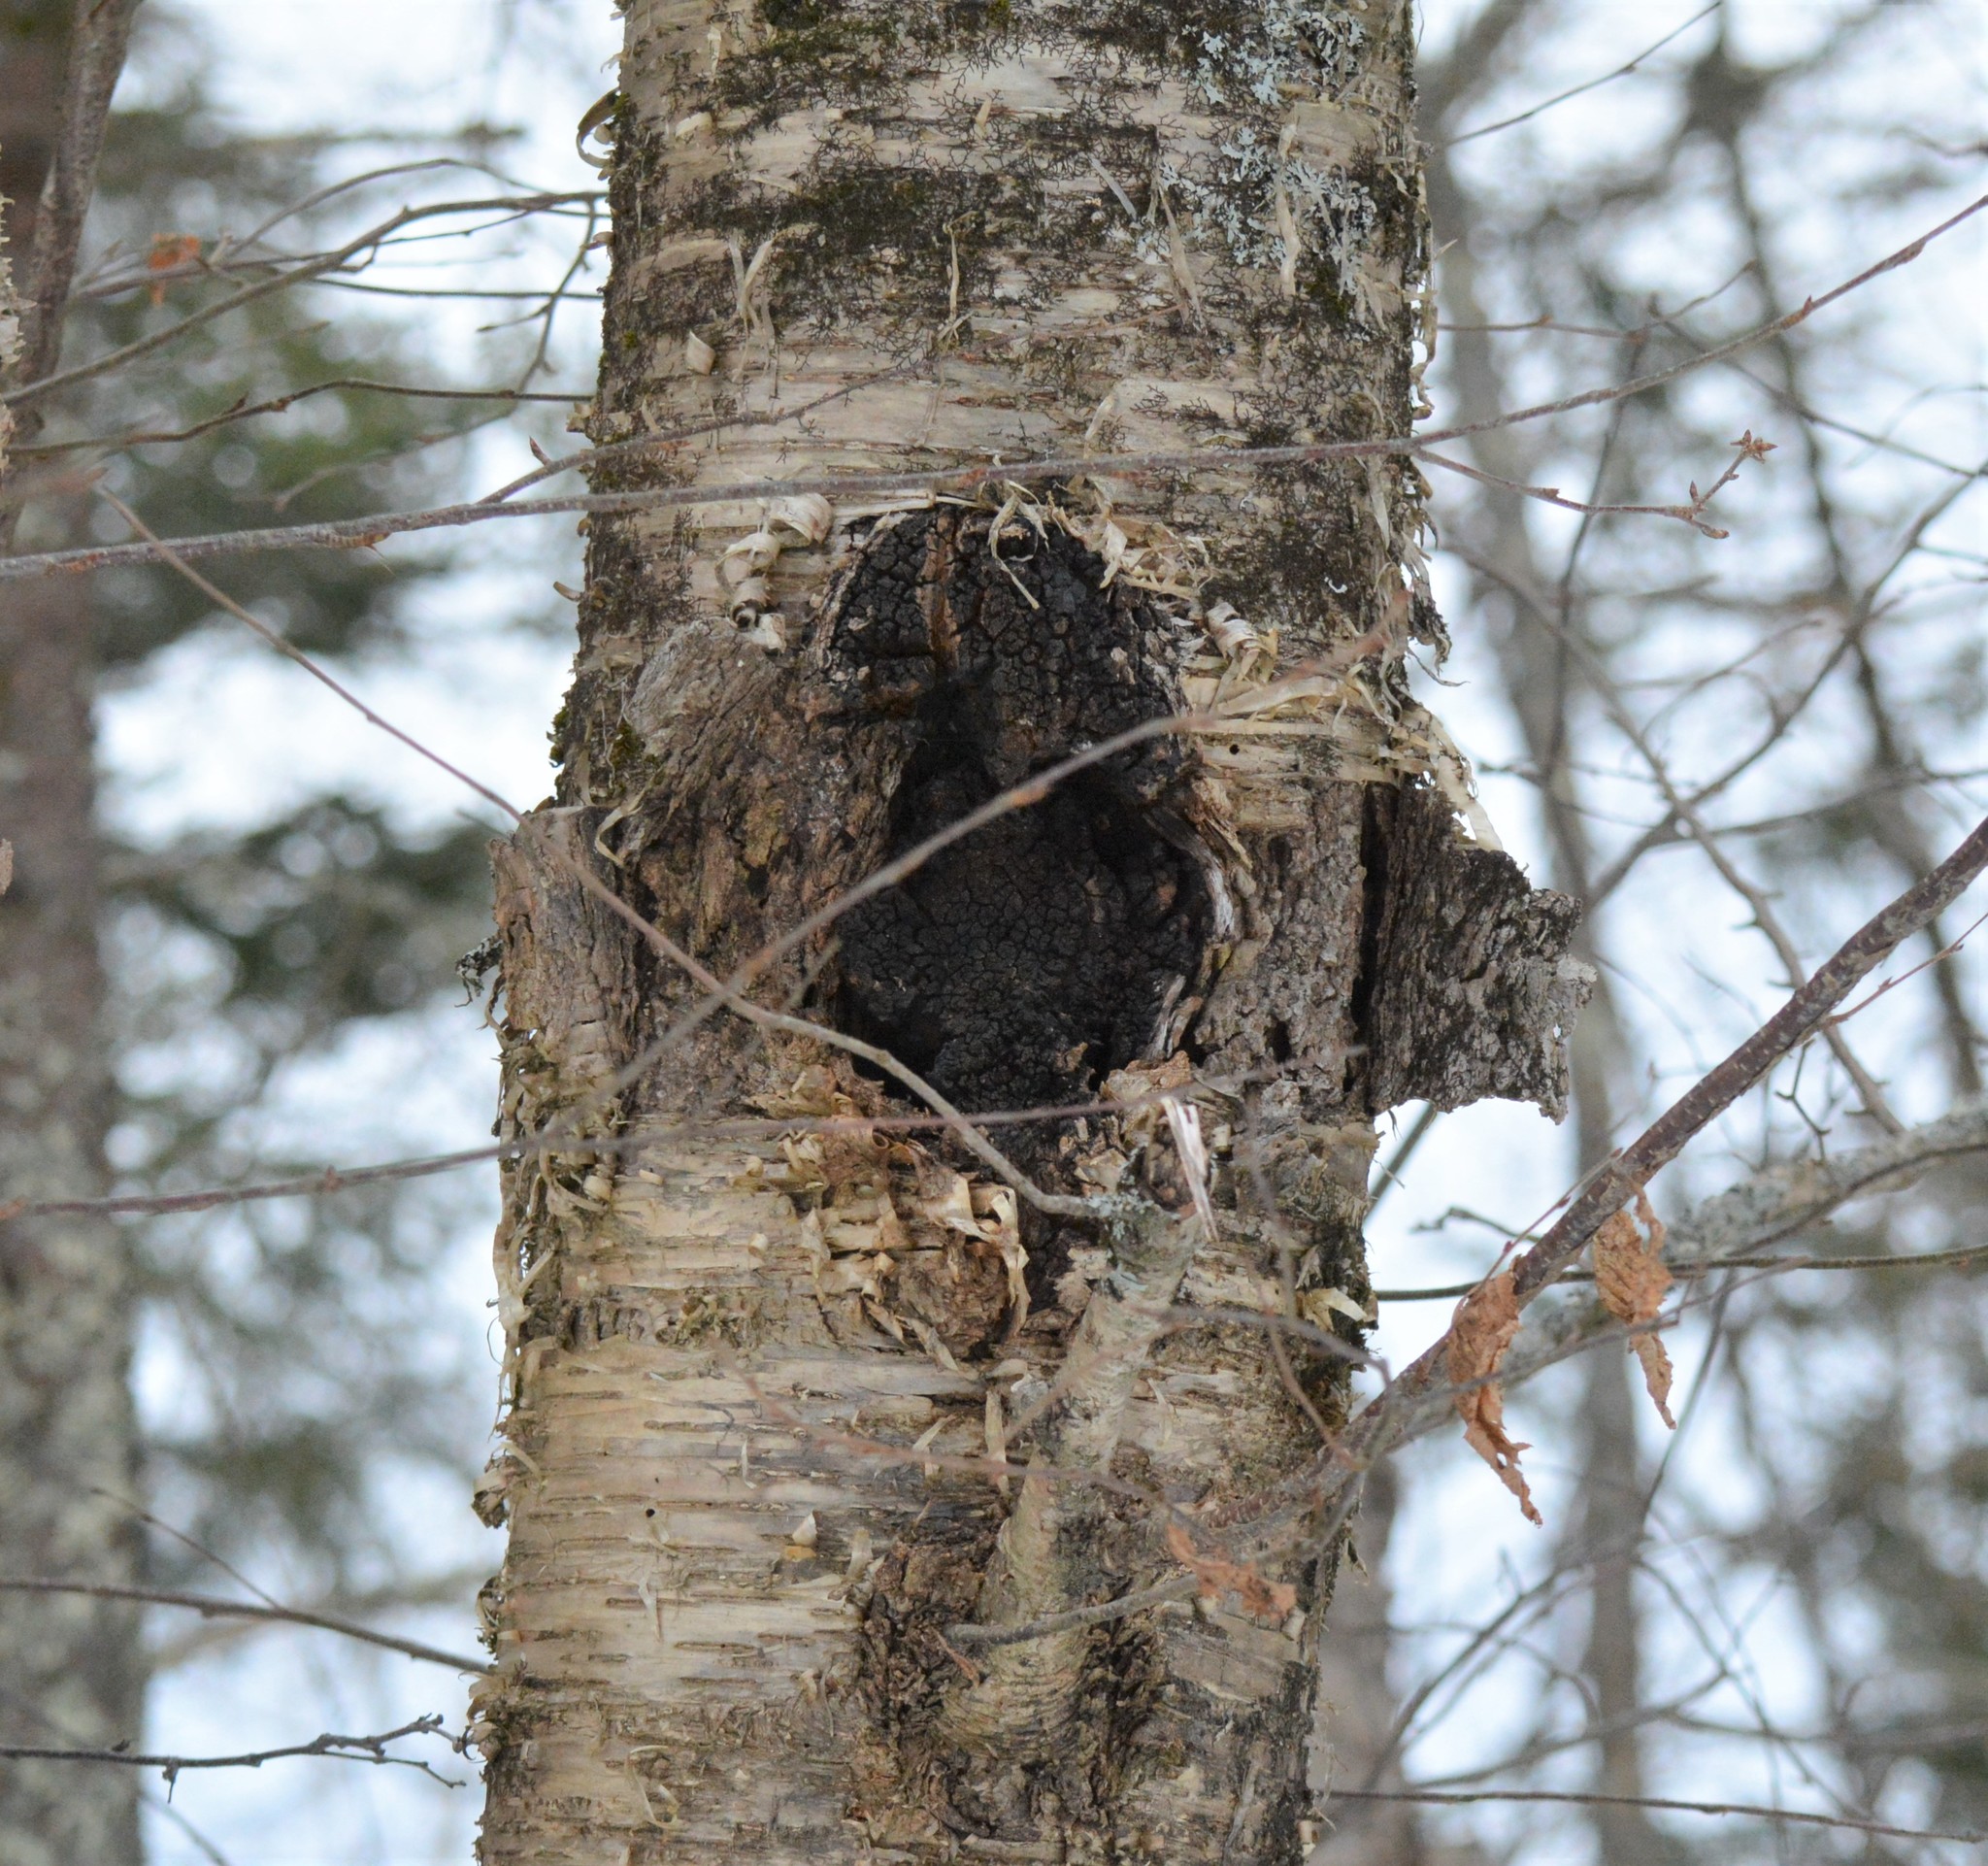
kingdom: Fungi
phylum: Basidiomycota
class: Agaricomycetes
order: Hymenochaetales
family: Hymenochaetaceae
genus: Inonotus
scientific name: Inonotus obliquus
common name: Chaga
